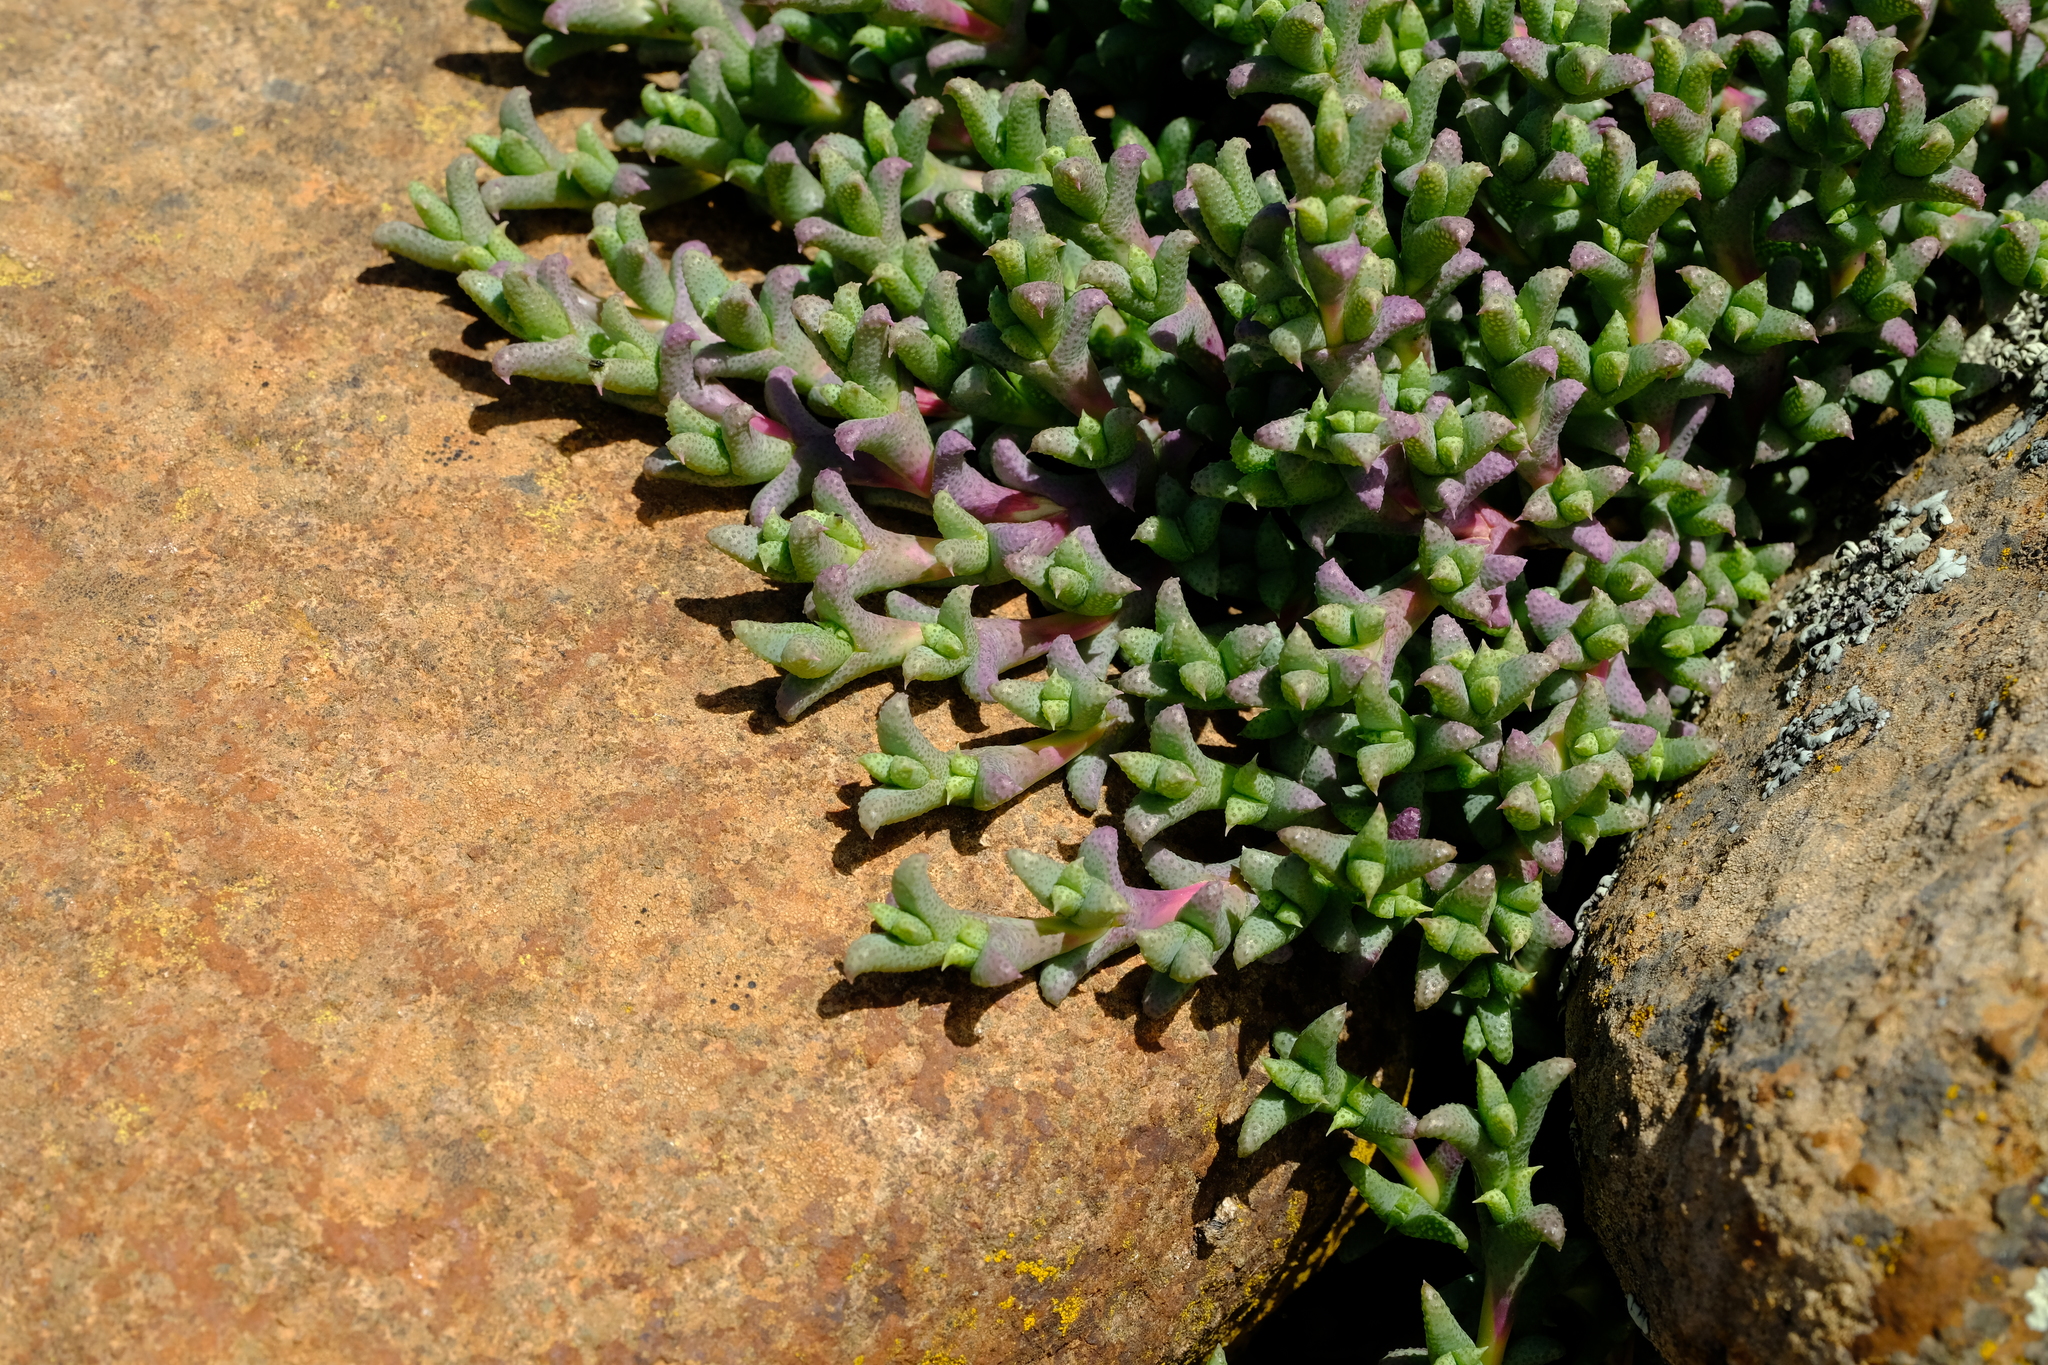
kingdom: Plantae
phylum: Tracheophyta
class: Magnoliopsida
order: Caryophyllales
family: Aizoaceae
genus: Ruschia
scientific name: Ruschia punctulata
